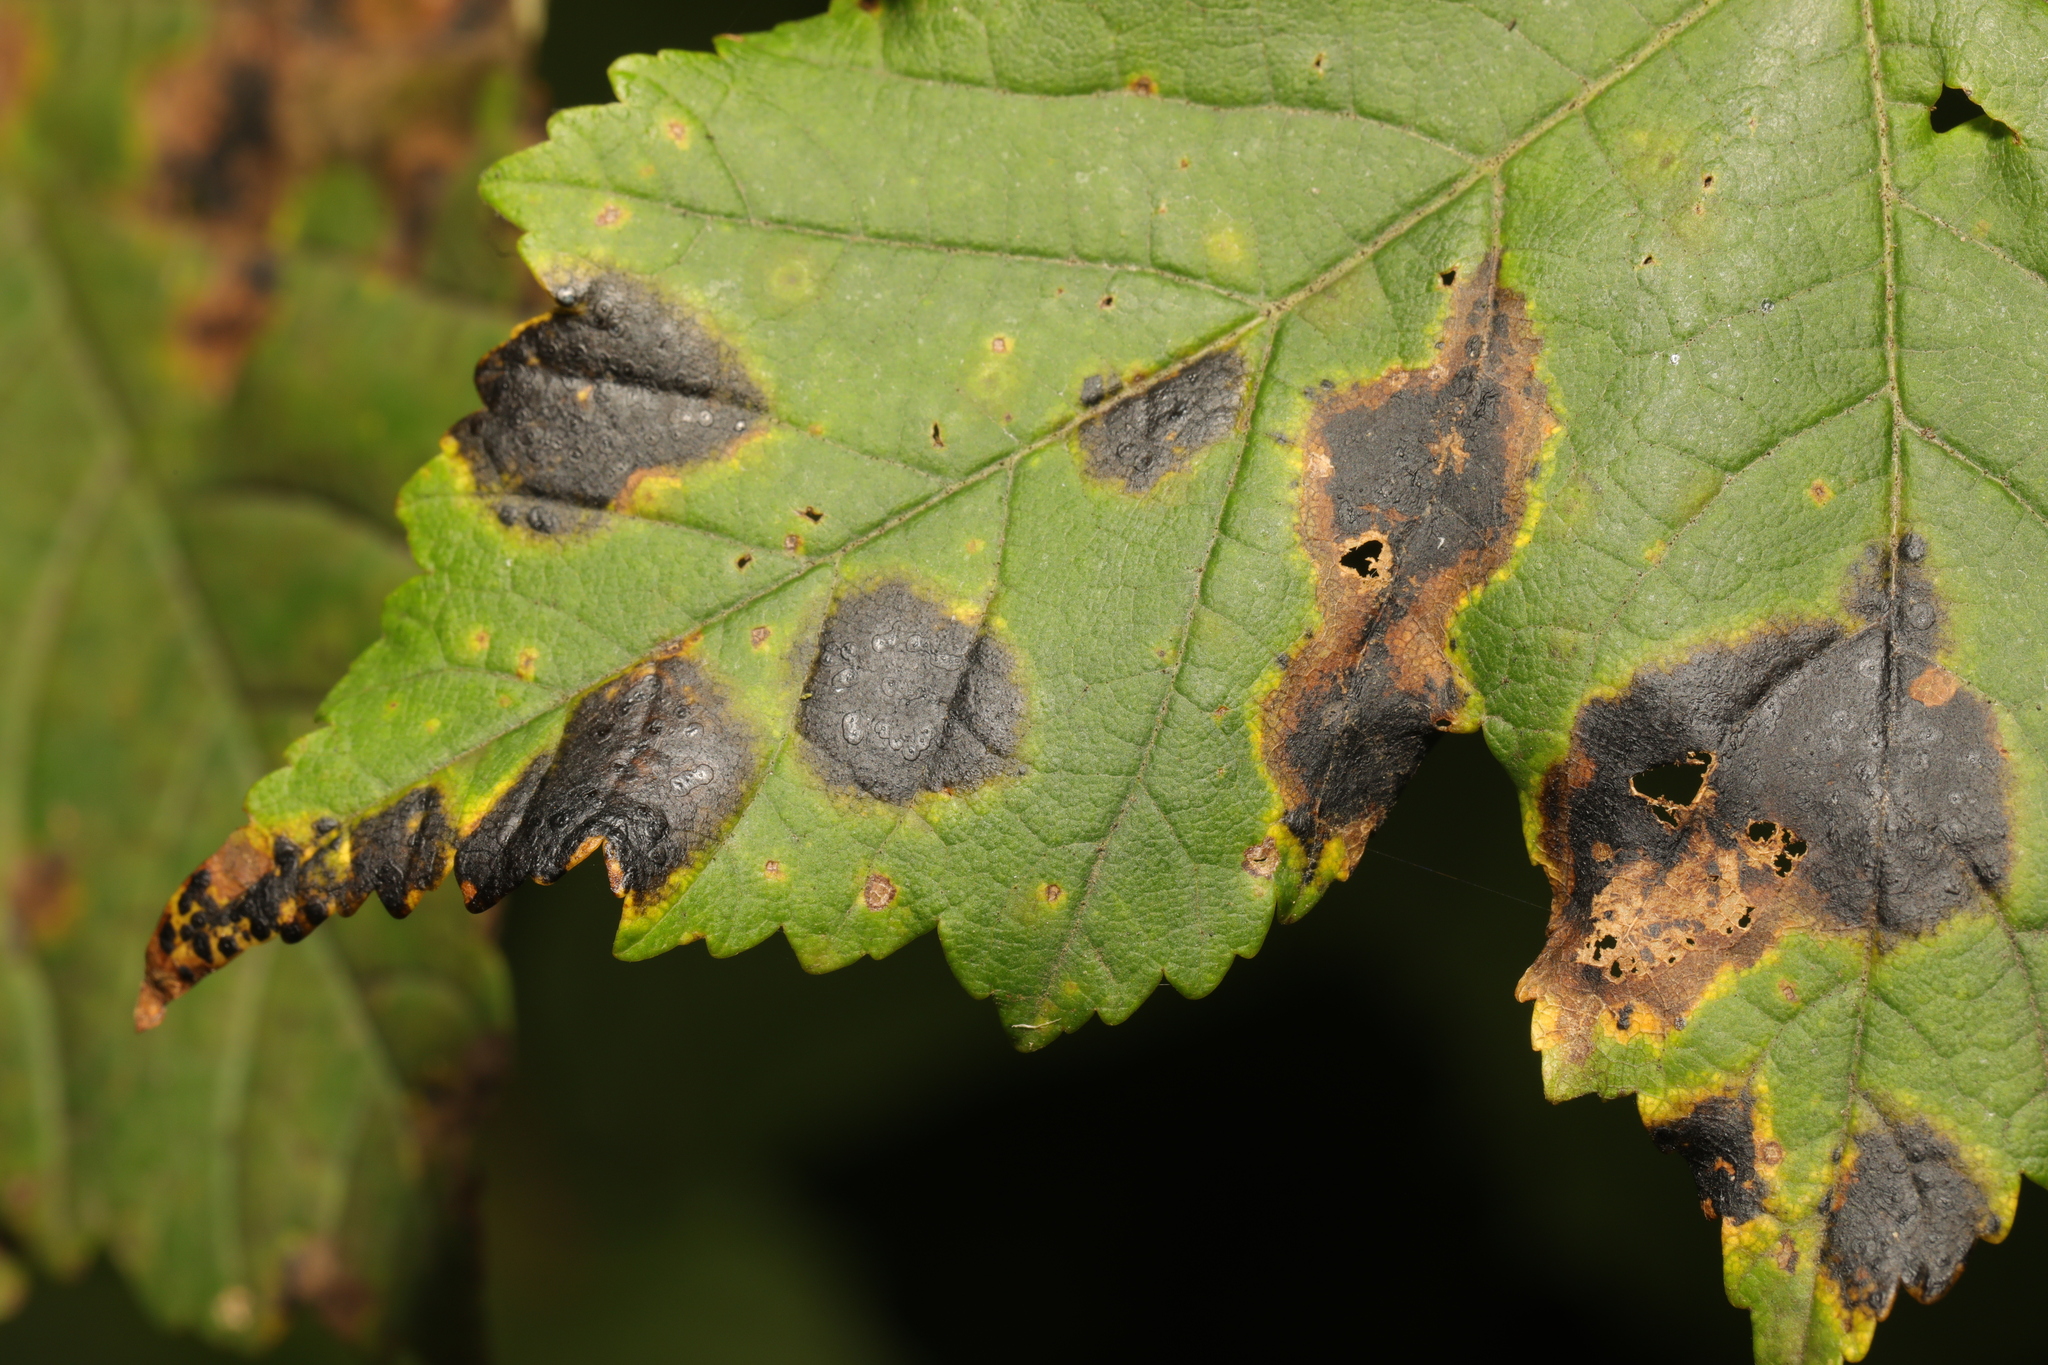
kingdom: Fungi
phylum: Ascomycota
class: Leotiomycetes
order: Rhytismatales
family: Rhytismataceae
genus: Rhytisma
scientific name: Rhytisma acerinum
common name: European tar spot
